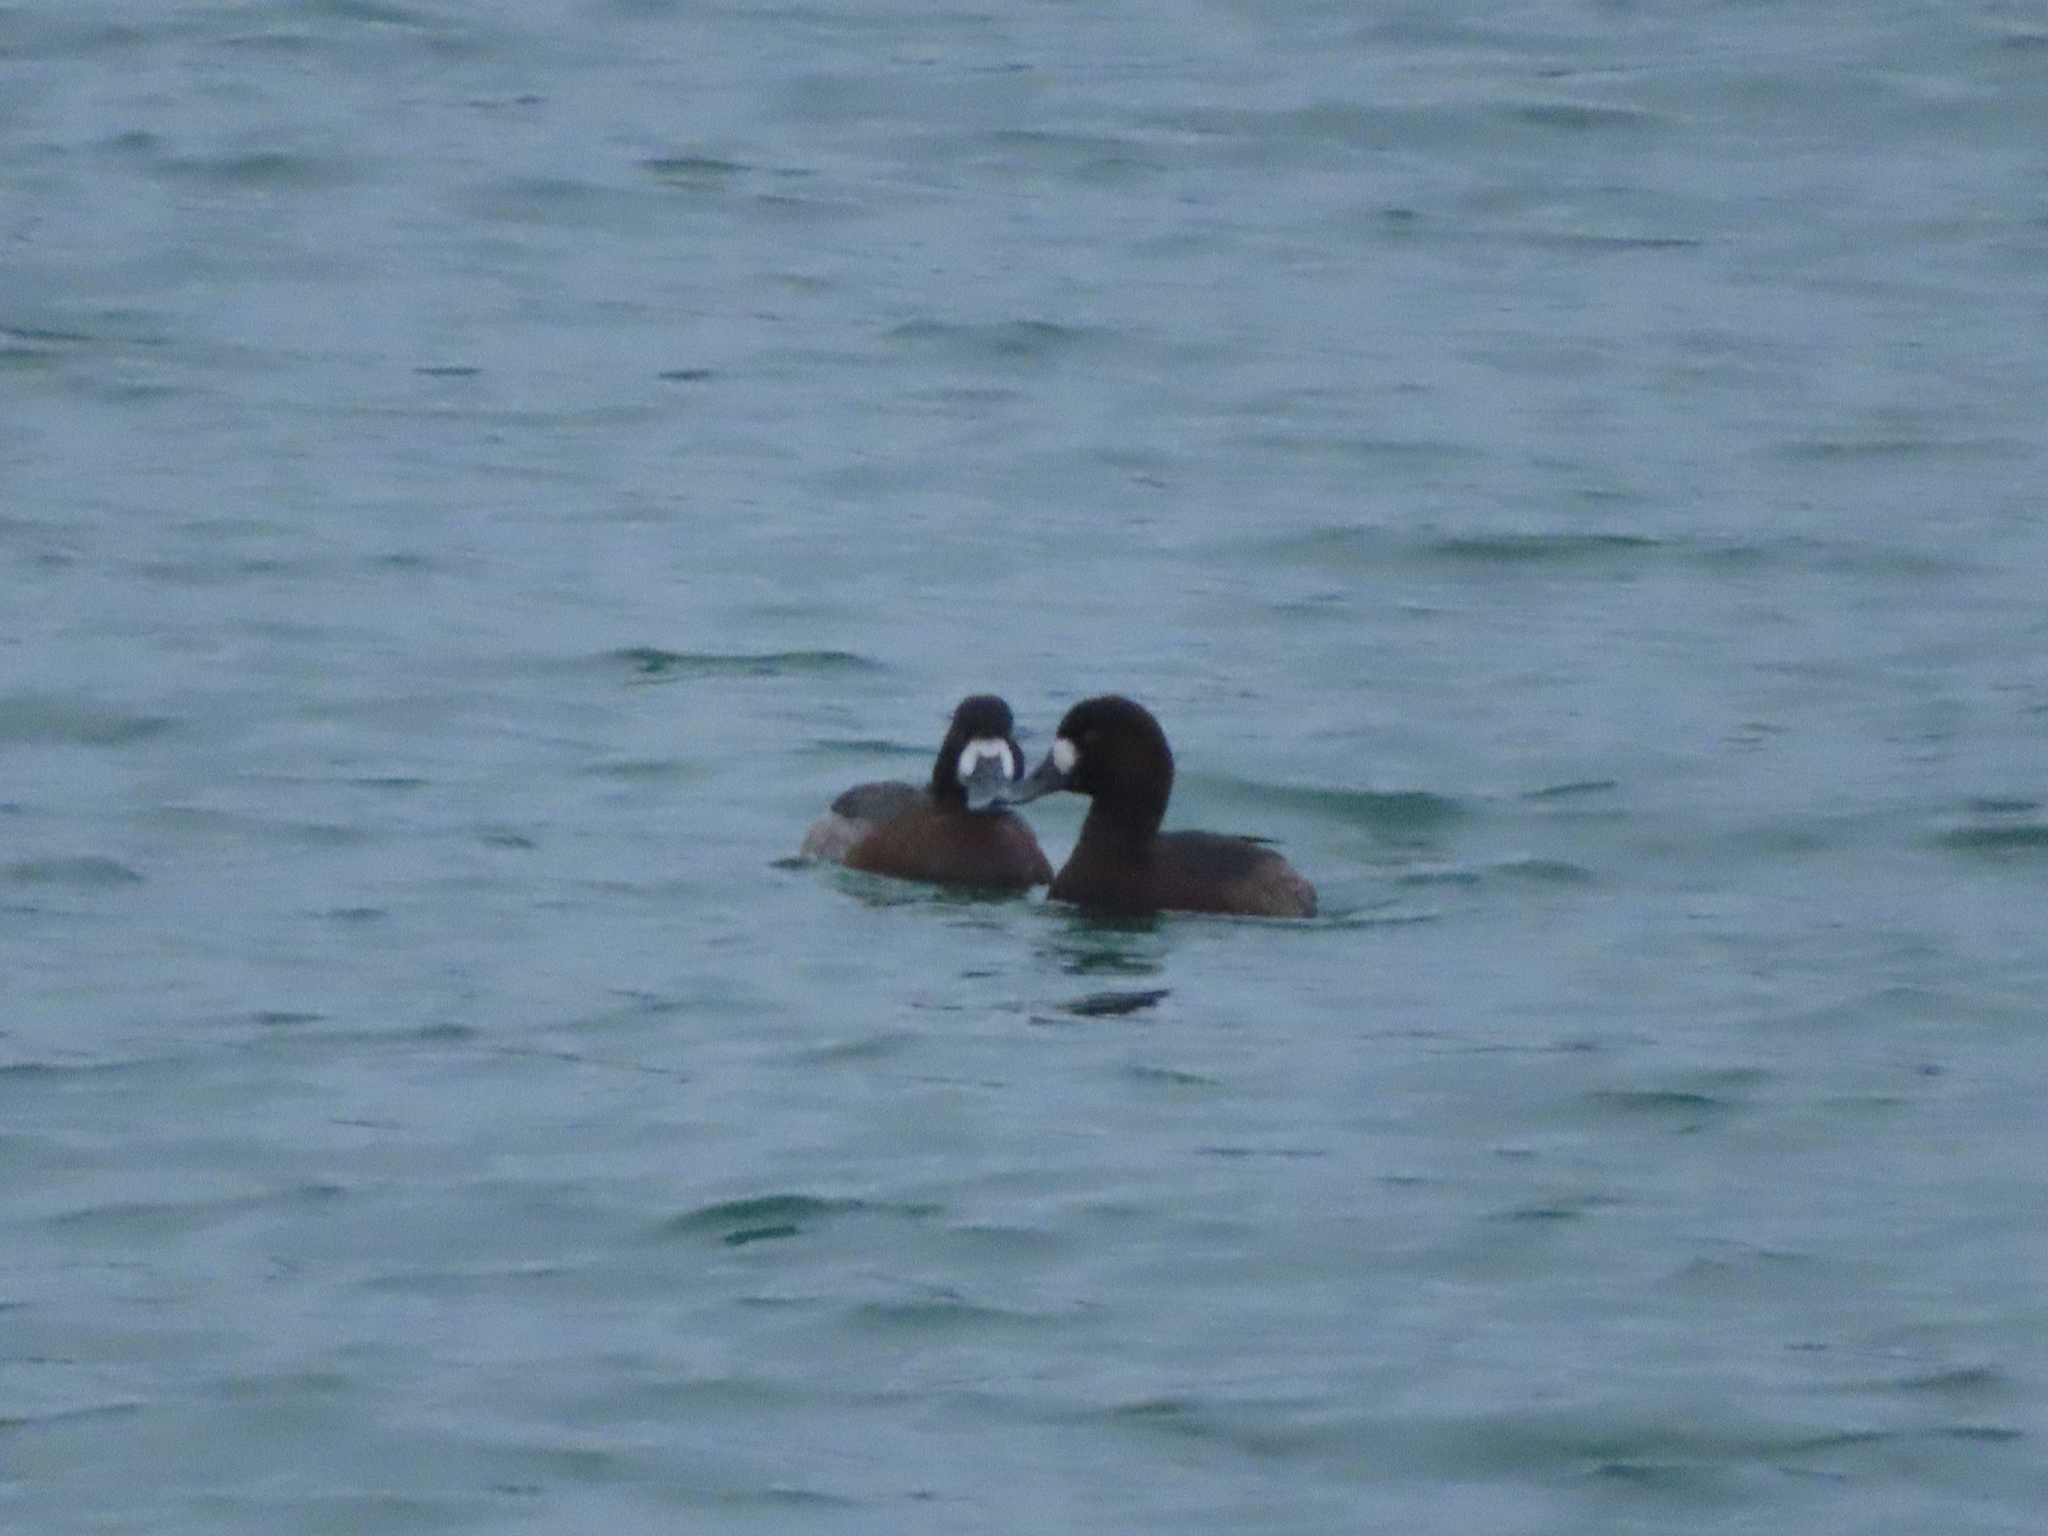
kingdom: Animalia
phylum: Chordata
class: Aves
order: Anseriformes
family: Anatidae
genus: Aythya
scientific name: Aythya marila
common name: Greater scaup
